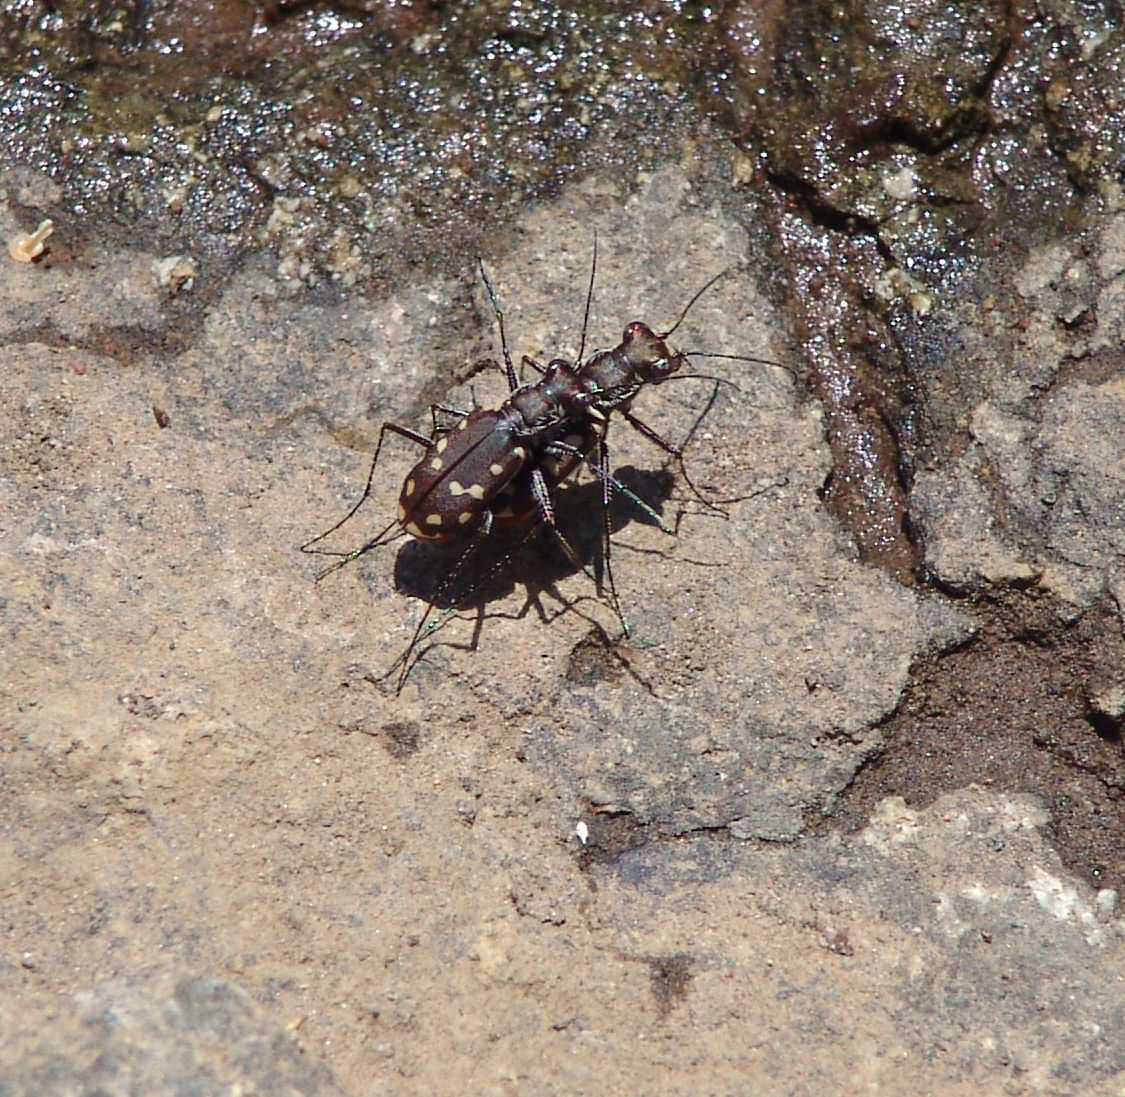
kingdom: Animalia
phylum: Arthropoda
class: Insecta
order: Coleoptera
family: Carabidae
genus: Cicindela
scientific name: Cicindela sedecimpunctata
